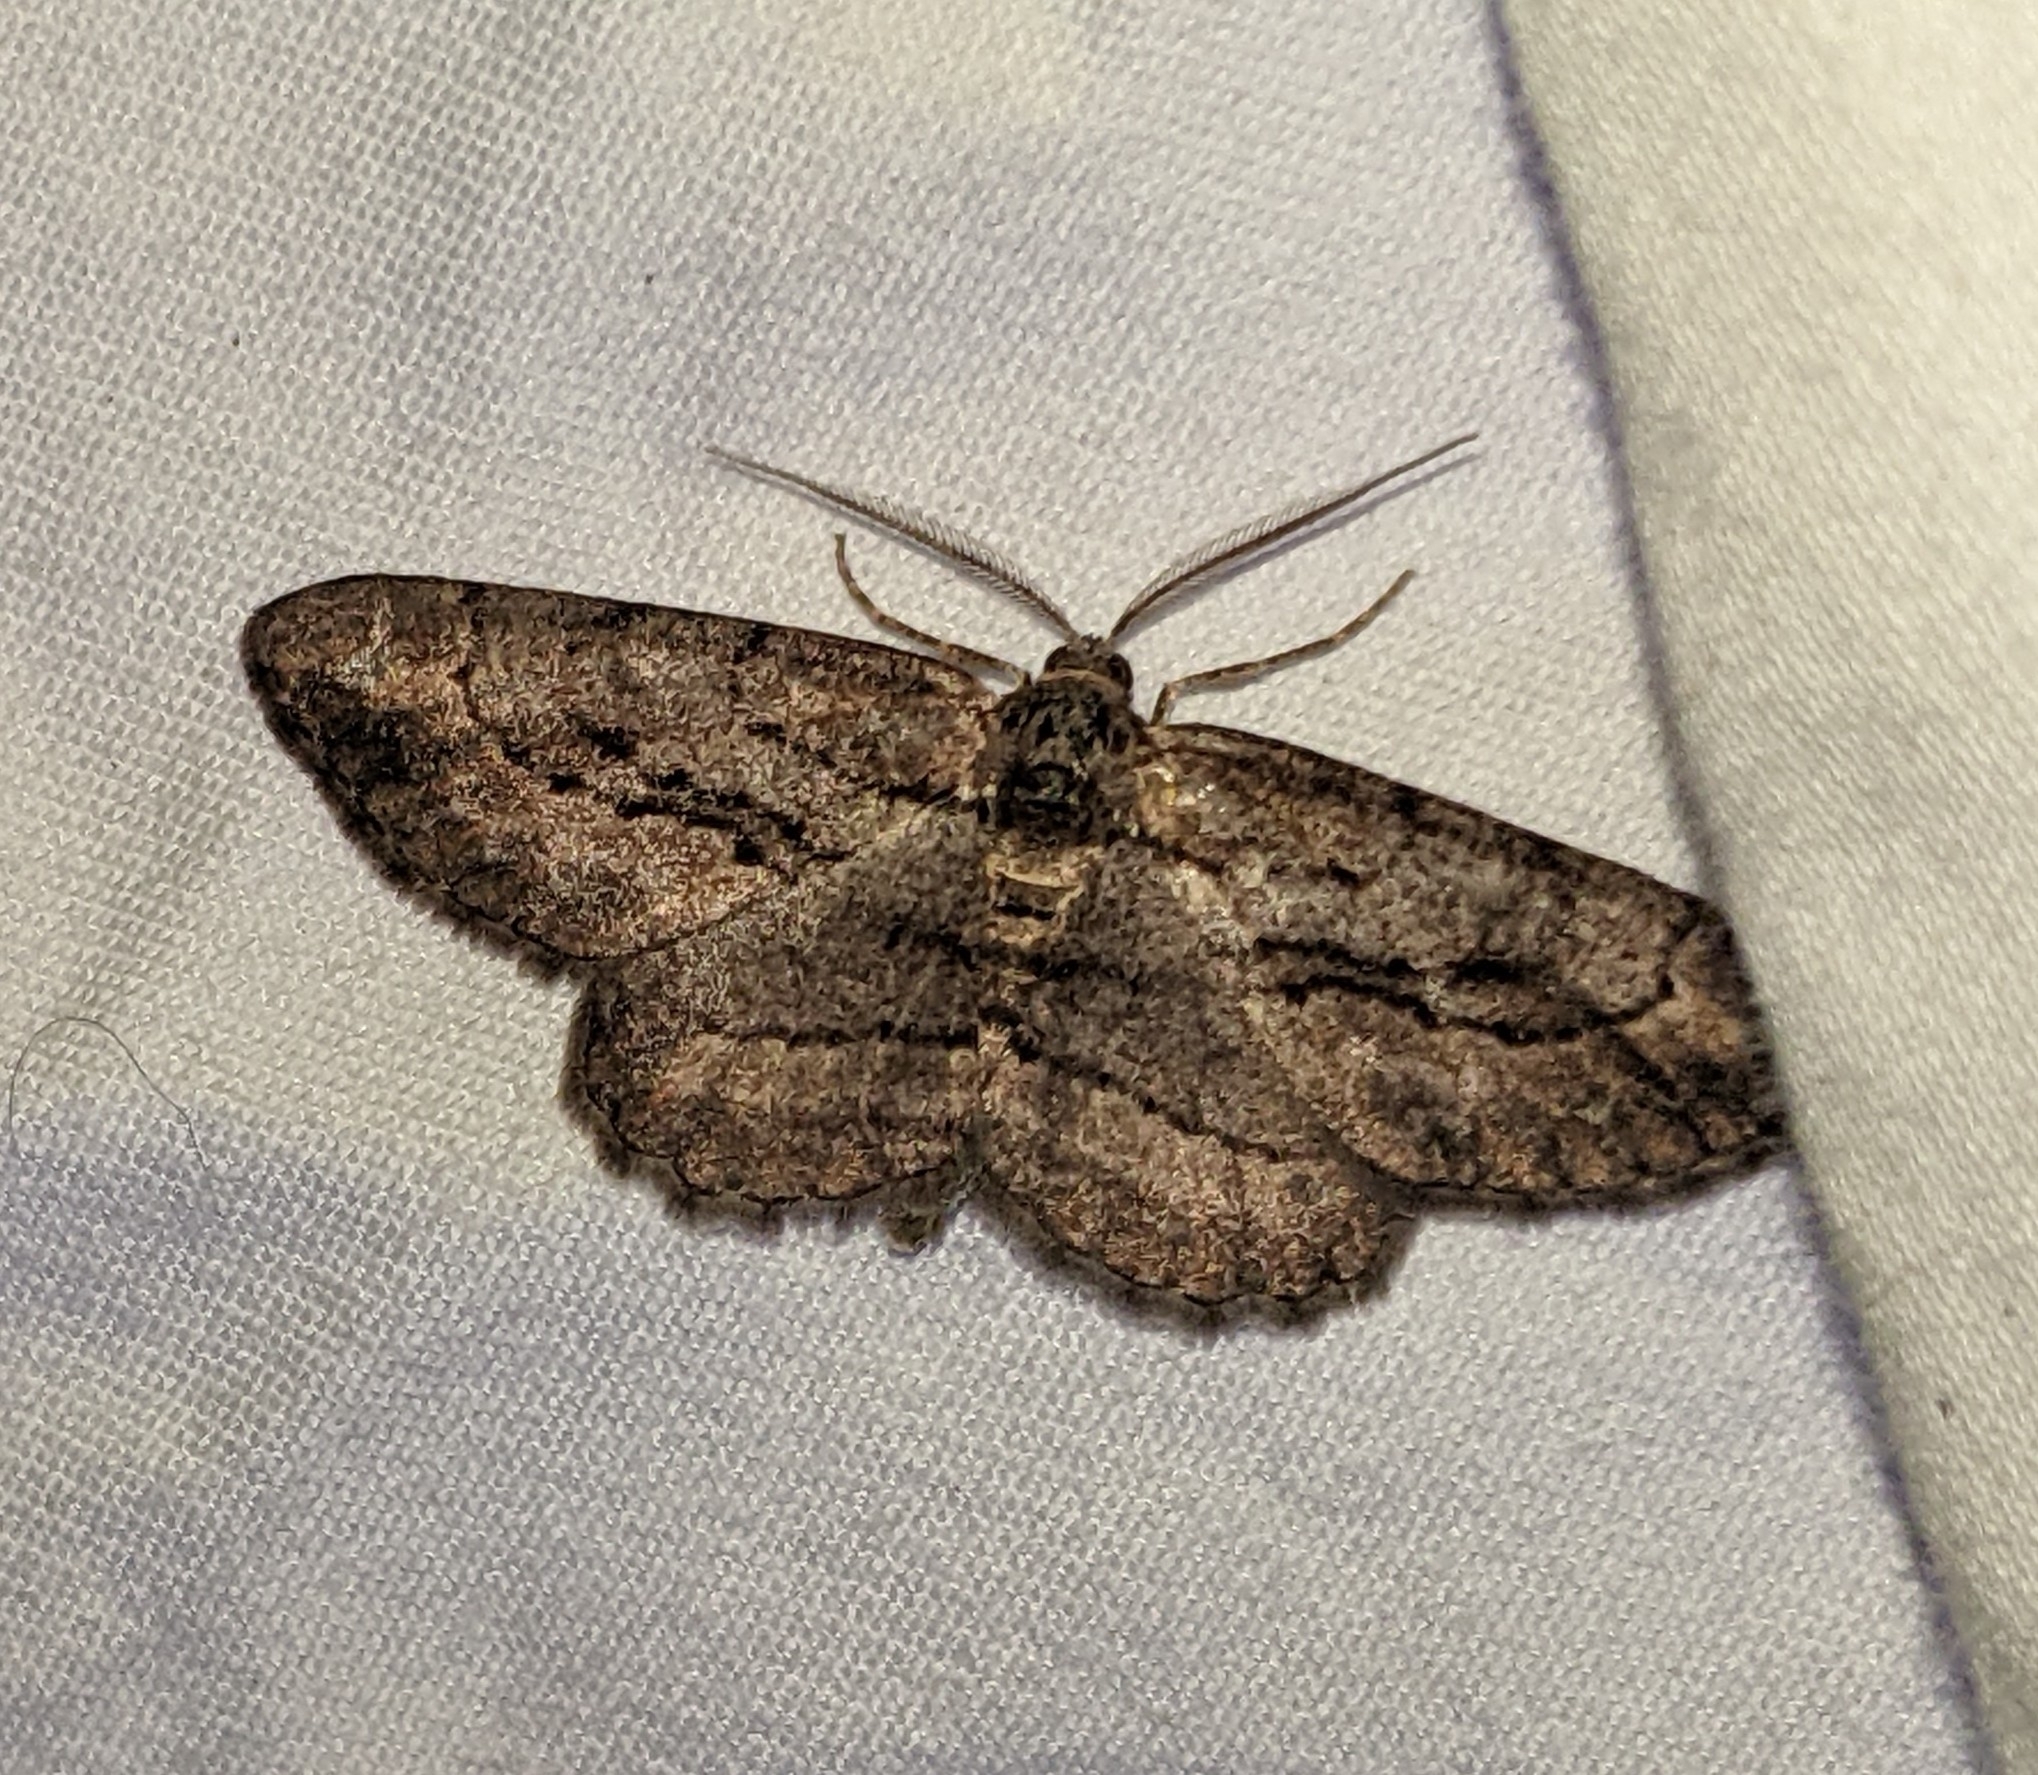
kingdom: Animalia
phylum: Arthropoda
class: Insecta
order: Lepidoptera
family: Geometridae
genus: Anavitrinella
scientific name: Anavitrinella pampinaria
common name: Common gray
